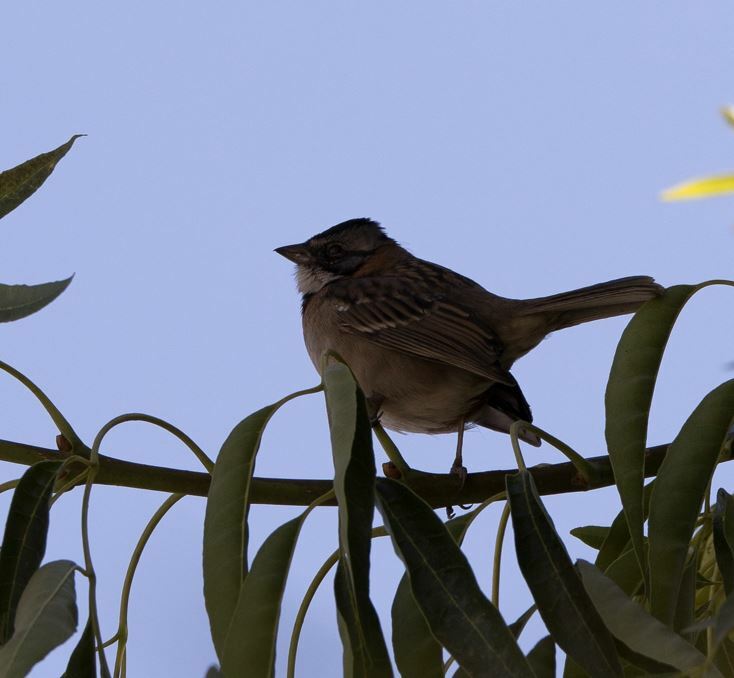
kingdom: Animalia
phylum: Chordata
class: Aves
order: Passeriformes
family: Passerellidae
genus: Zonotrichia
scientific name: Zonotrichia capensis
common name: Rufous-collared sparrow
